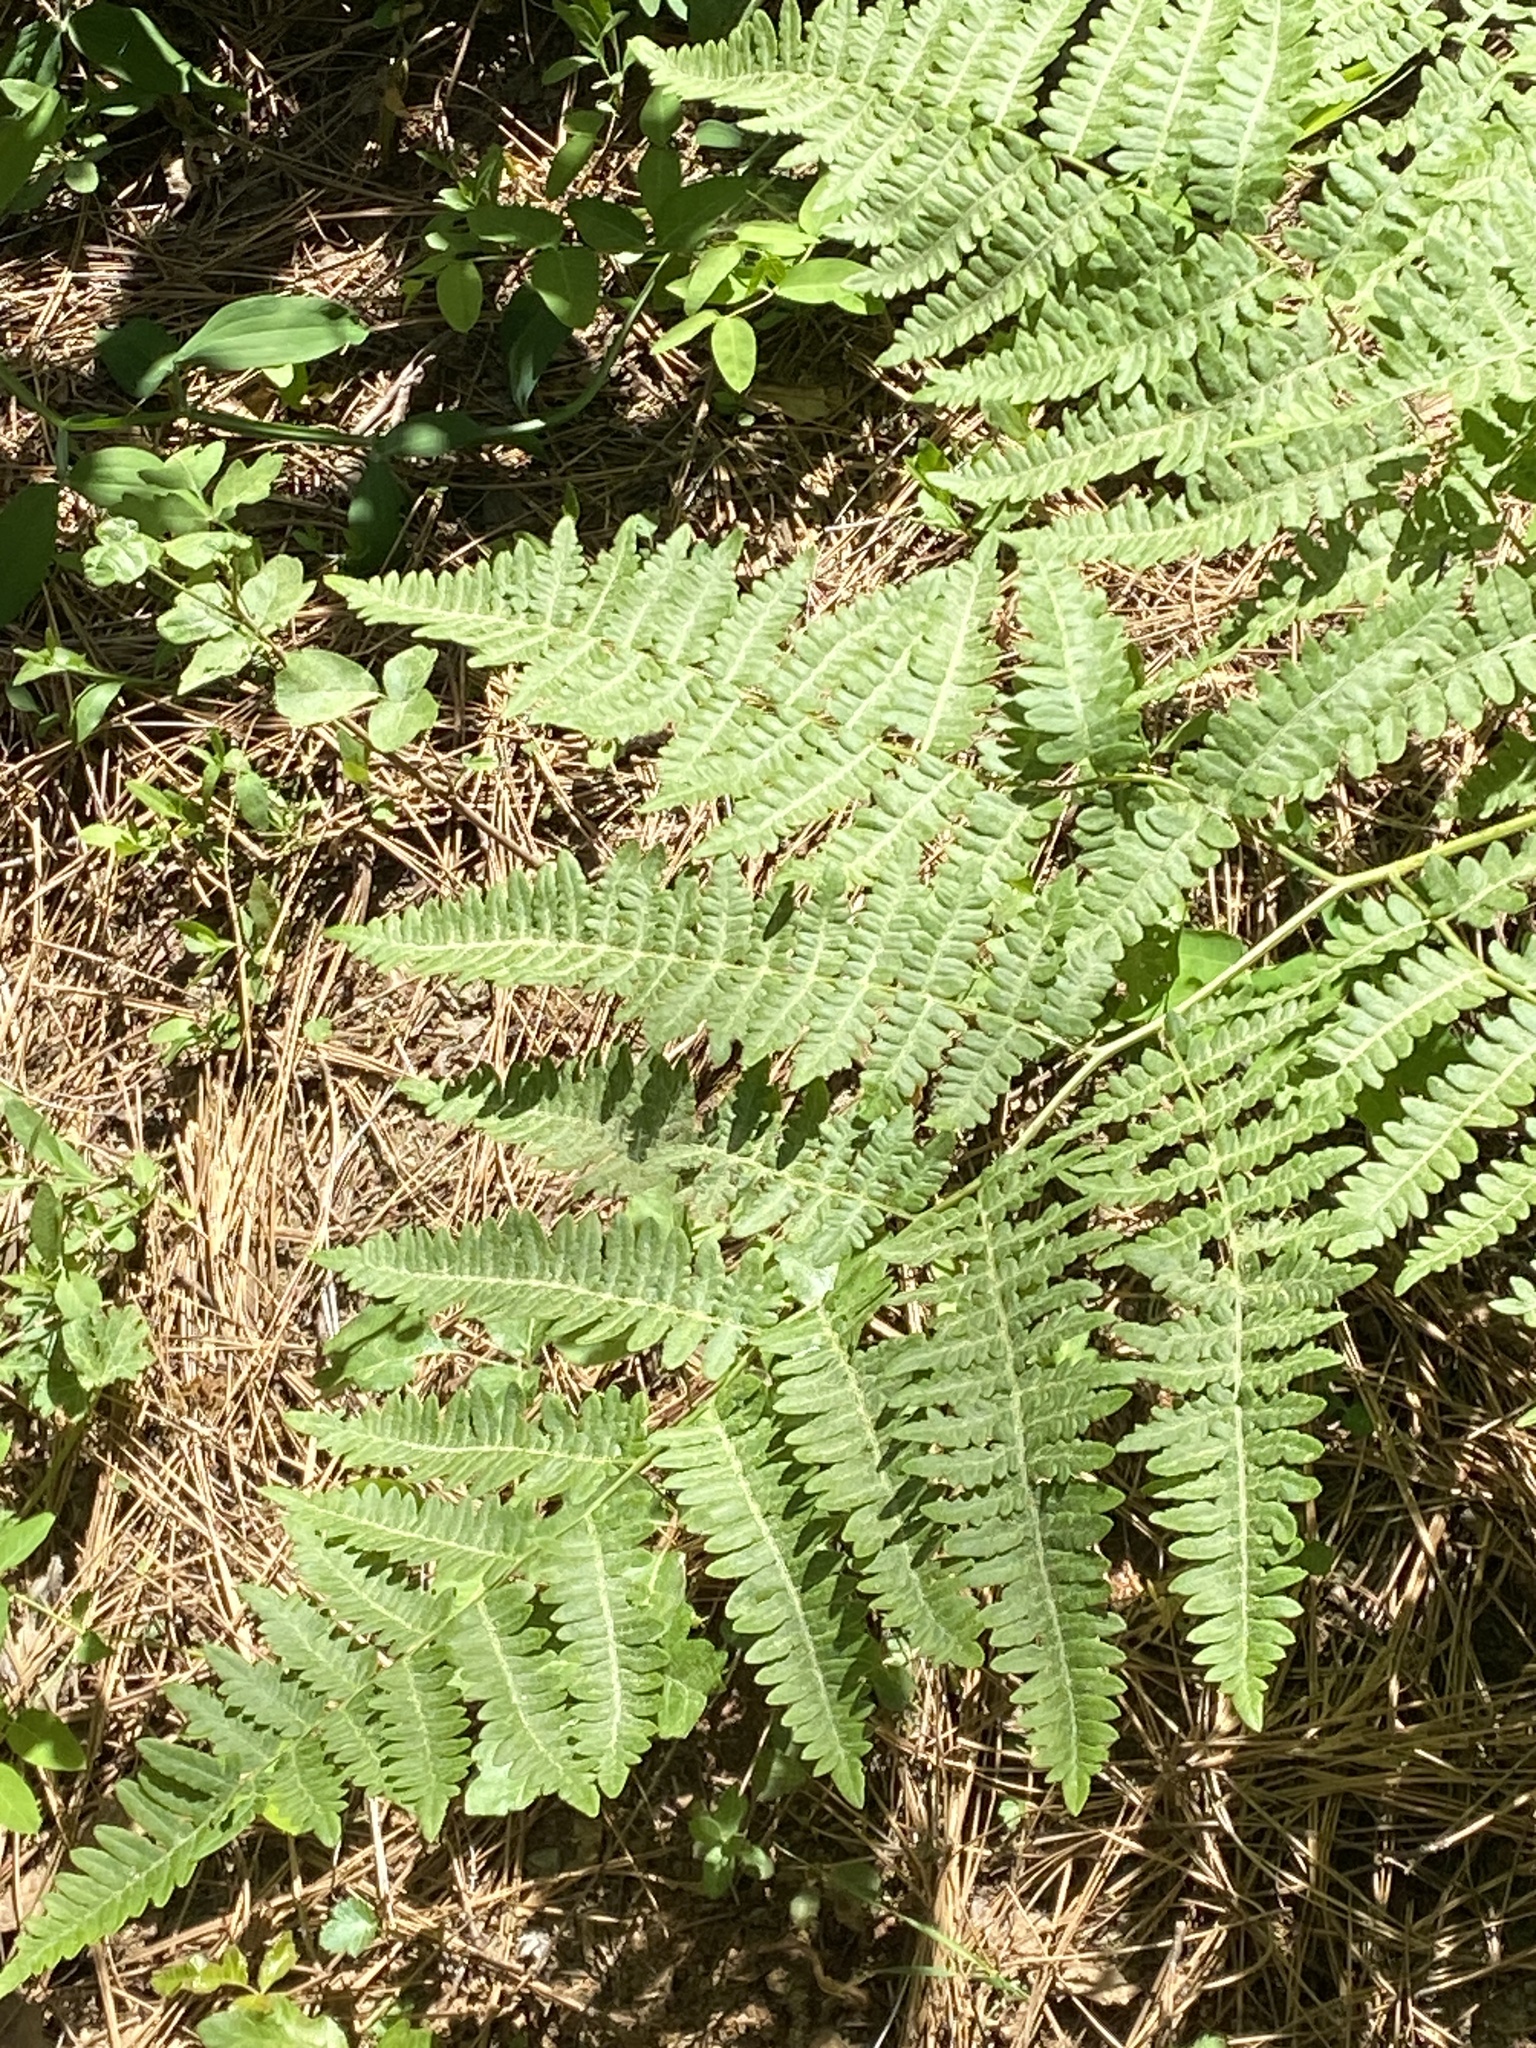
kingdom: Plantae
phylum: Tracheophyta
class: Polypodiopsida
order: Polypodiales
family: Dennstaedtiaceae
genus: Pteridium
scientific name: Pteridium aquilinum
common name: Bracken
